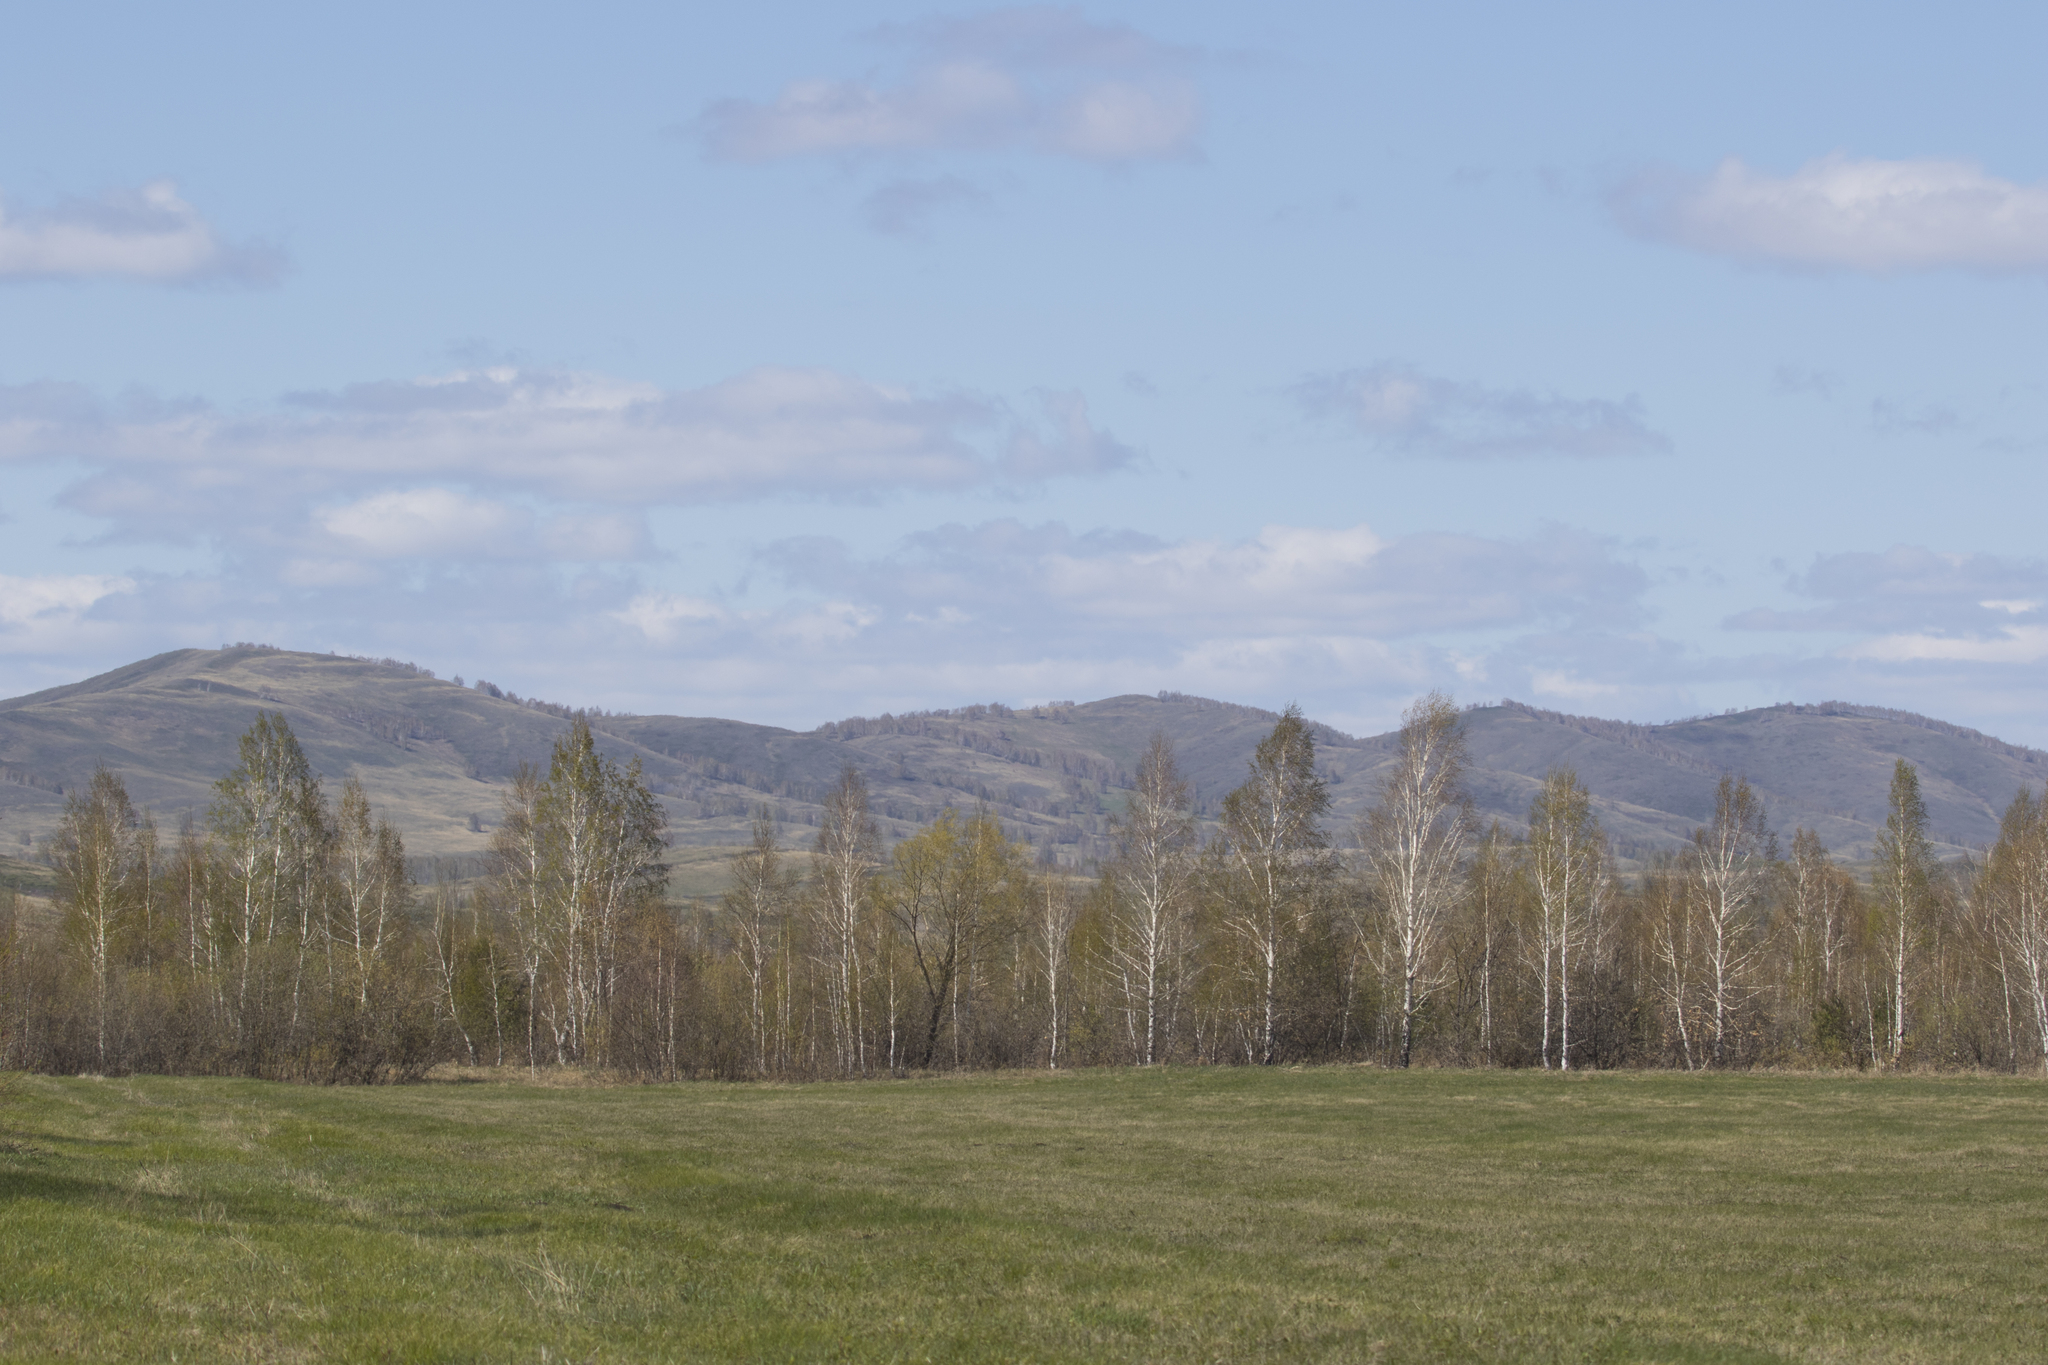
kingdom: Animalia
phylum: Chordata
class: Aves
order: Passeriformes
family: Muscicapidae
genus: Saxicola
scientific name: Saxicola rubetra
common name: Whinchat
